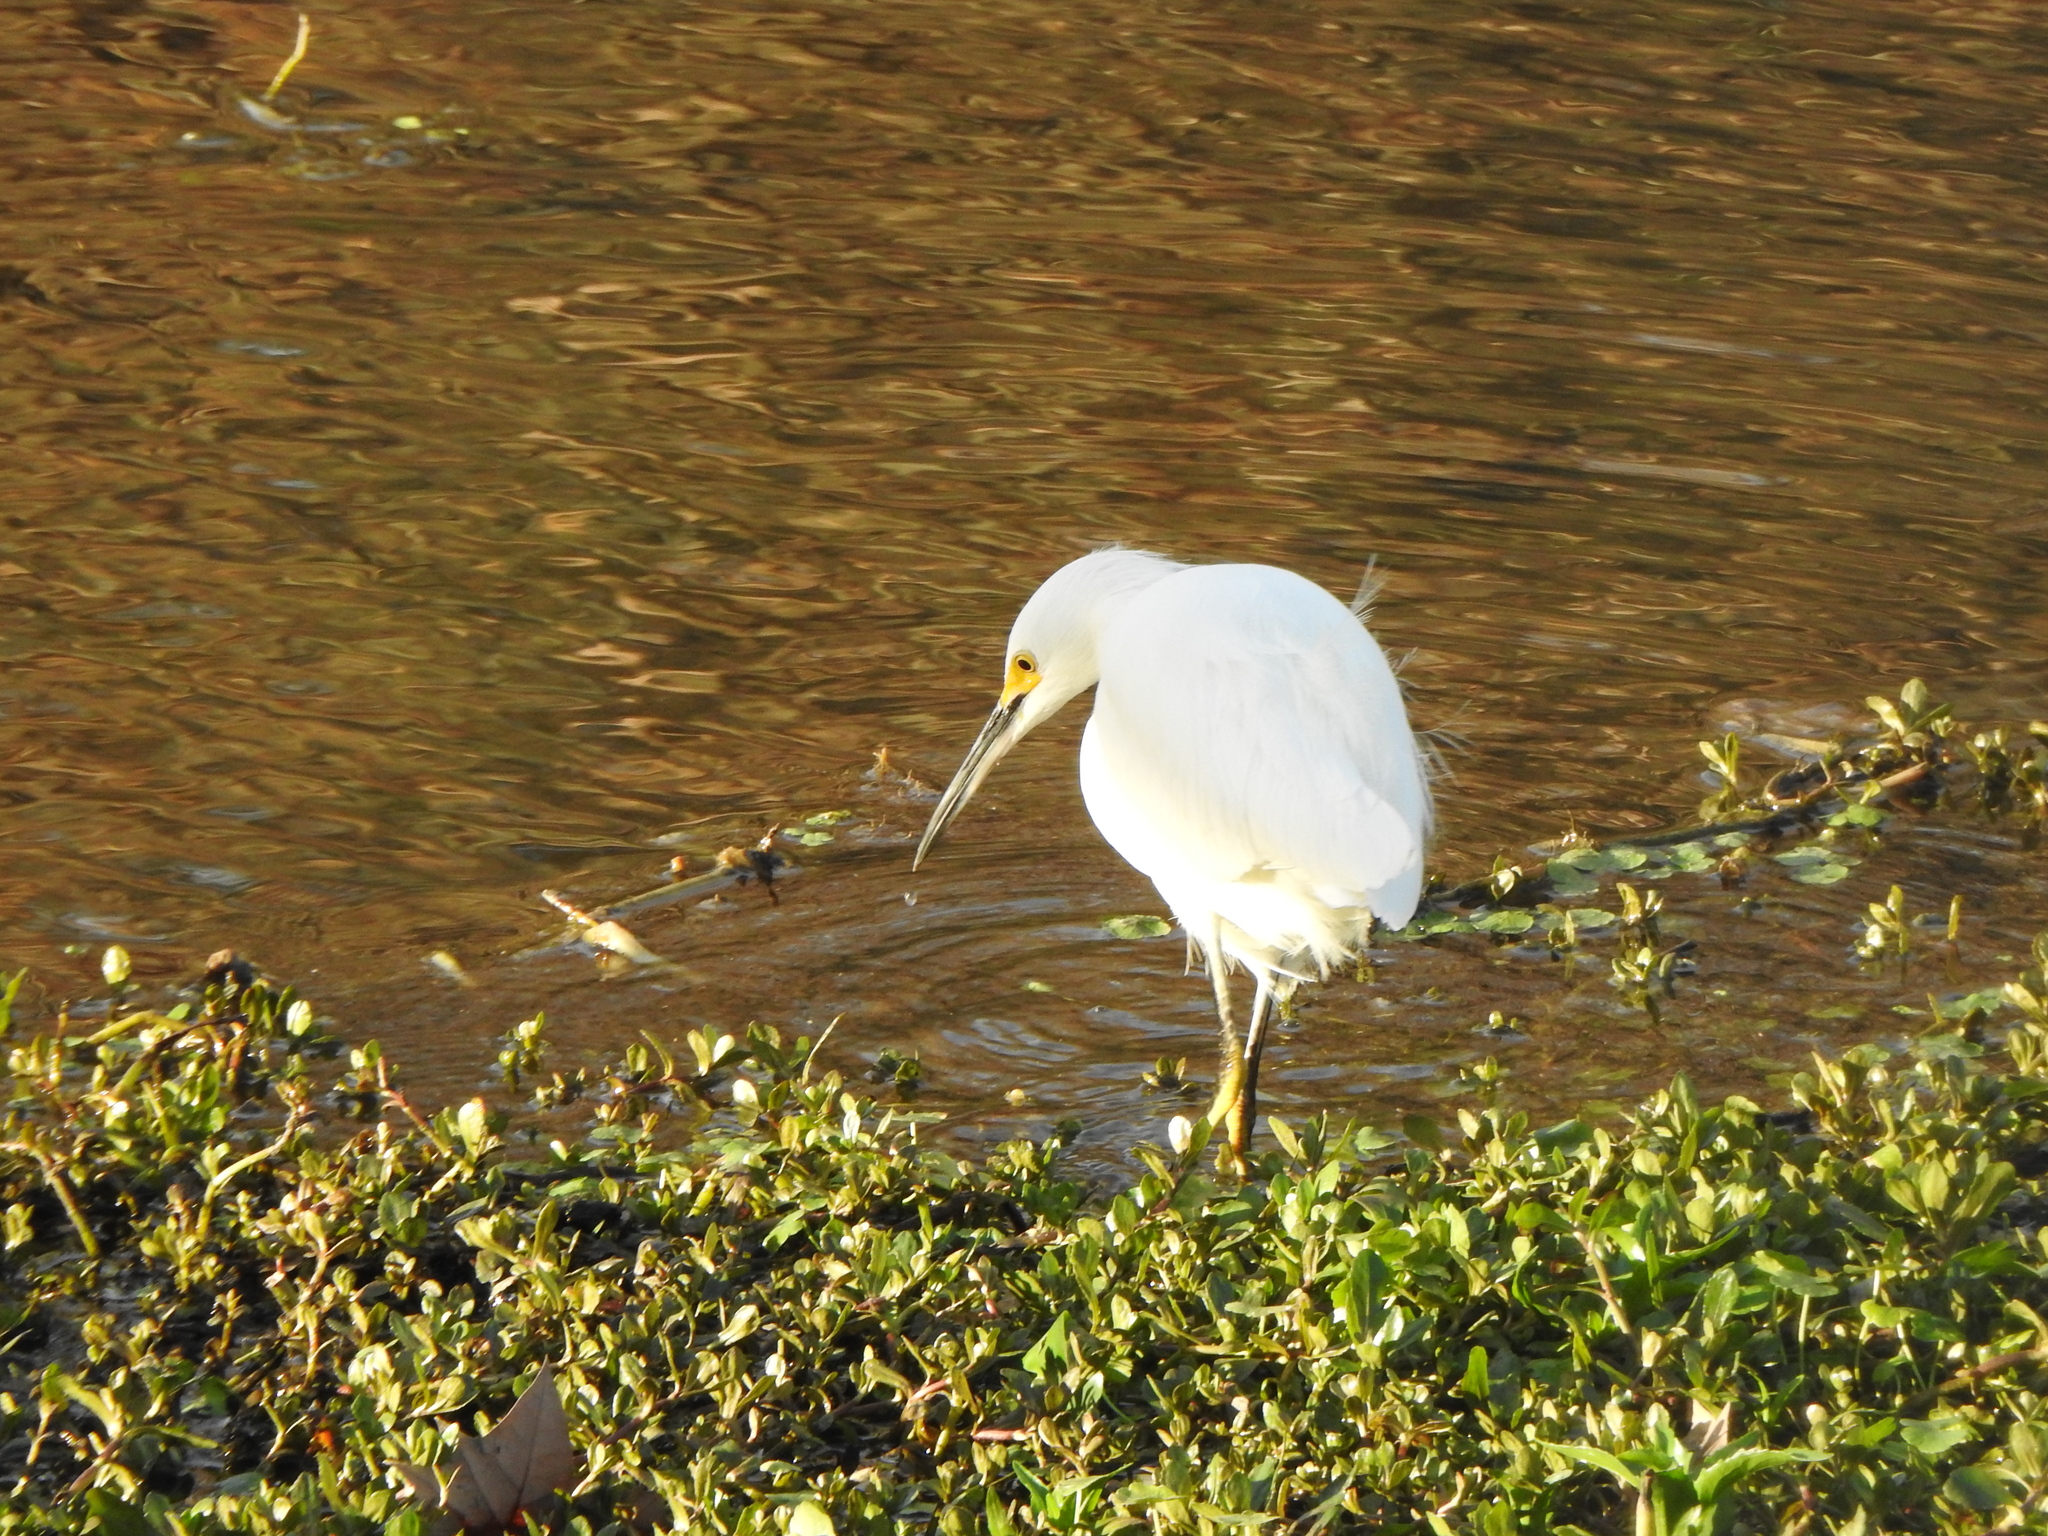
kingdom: Animalia
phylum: Chordata
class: Aves
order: Pelecaniformes
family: Ardeidae
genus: Egretta
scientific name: Egretta thula
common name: Snowy egret
